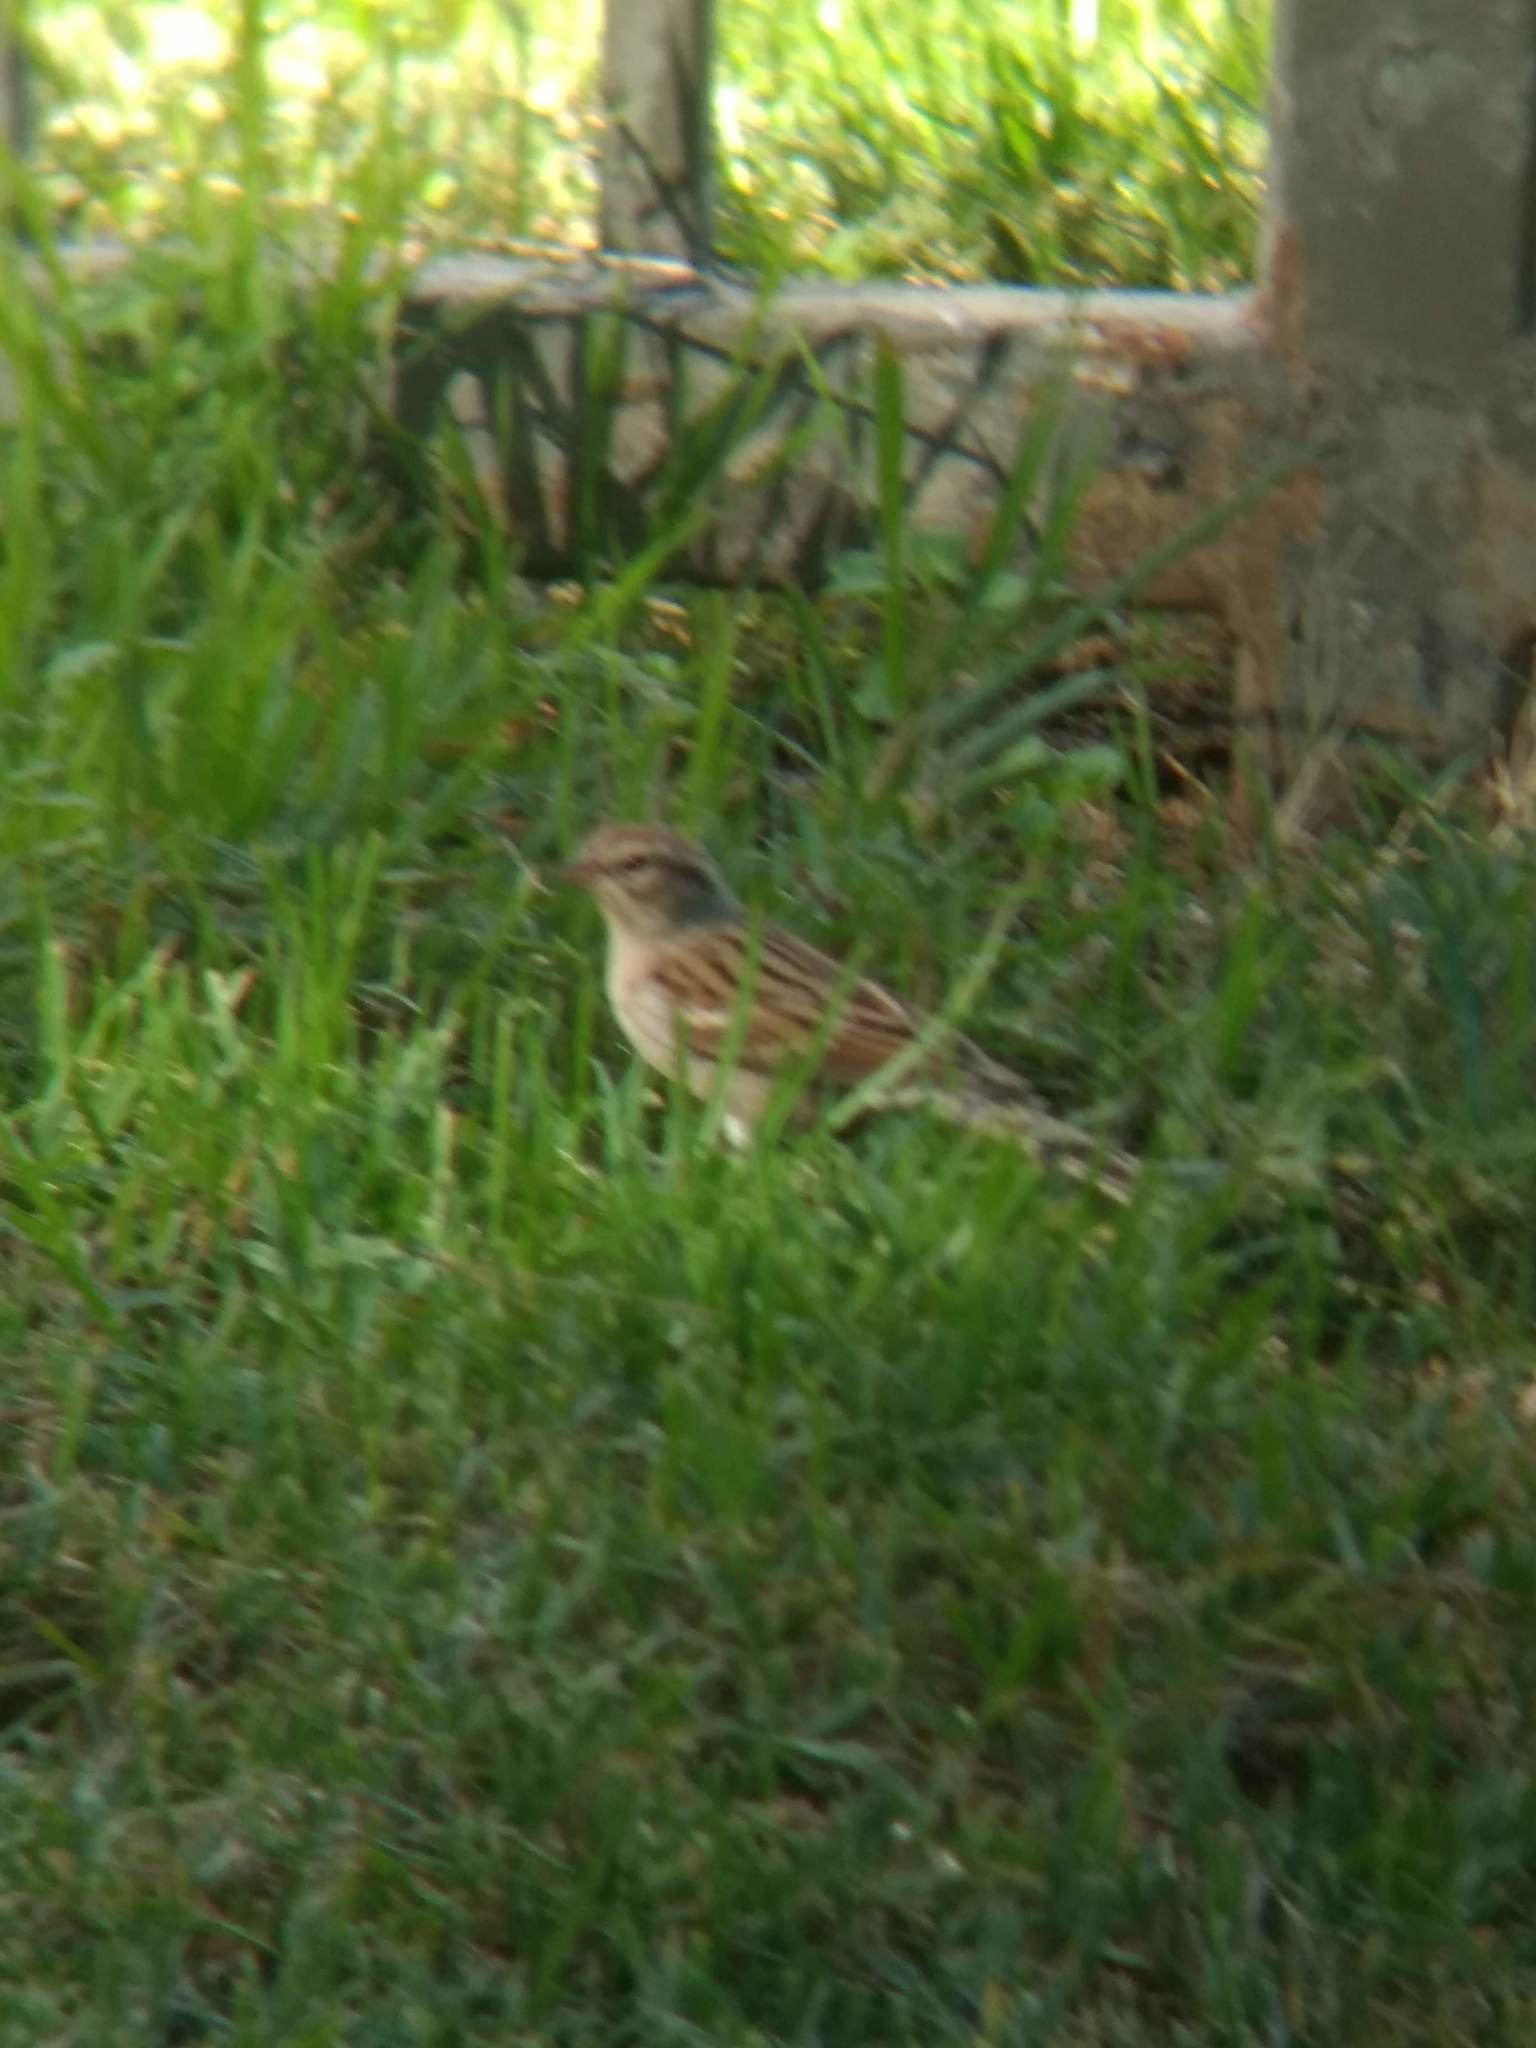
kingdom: Animalia
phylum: Chordata
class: Aves
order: Passeriformes
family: Passerellidae
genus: Spizella
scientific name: Spizella passerina
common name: Chipping sparrow
